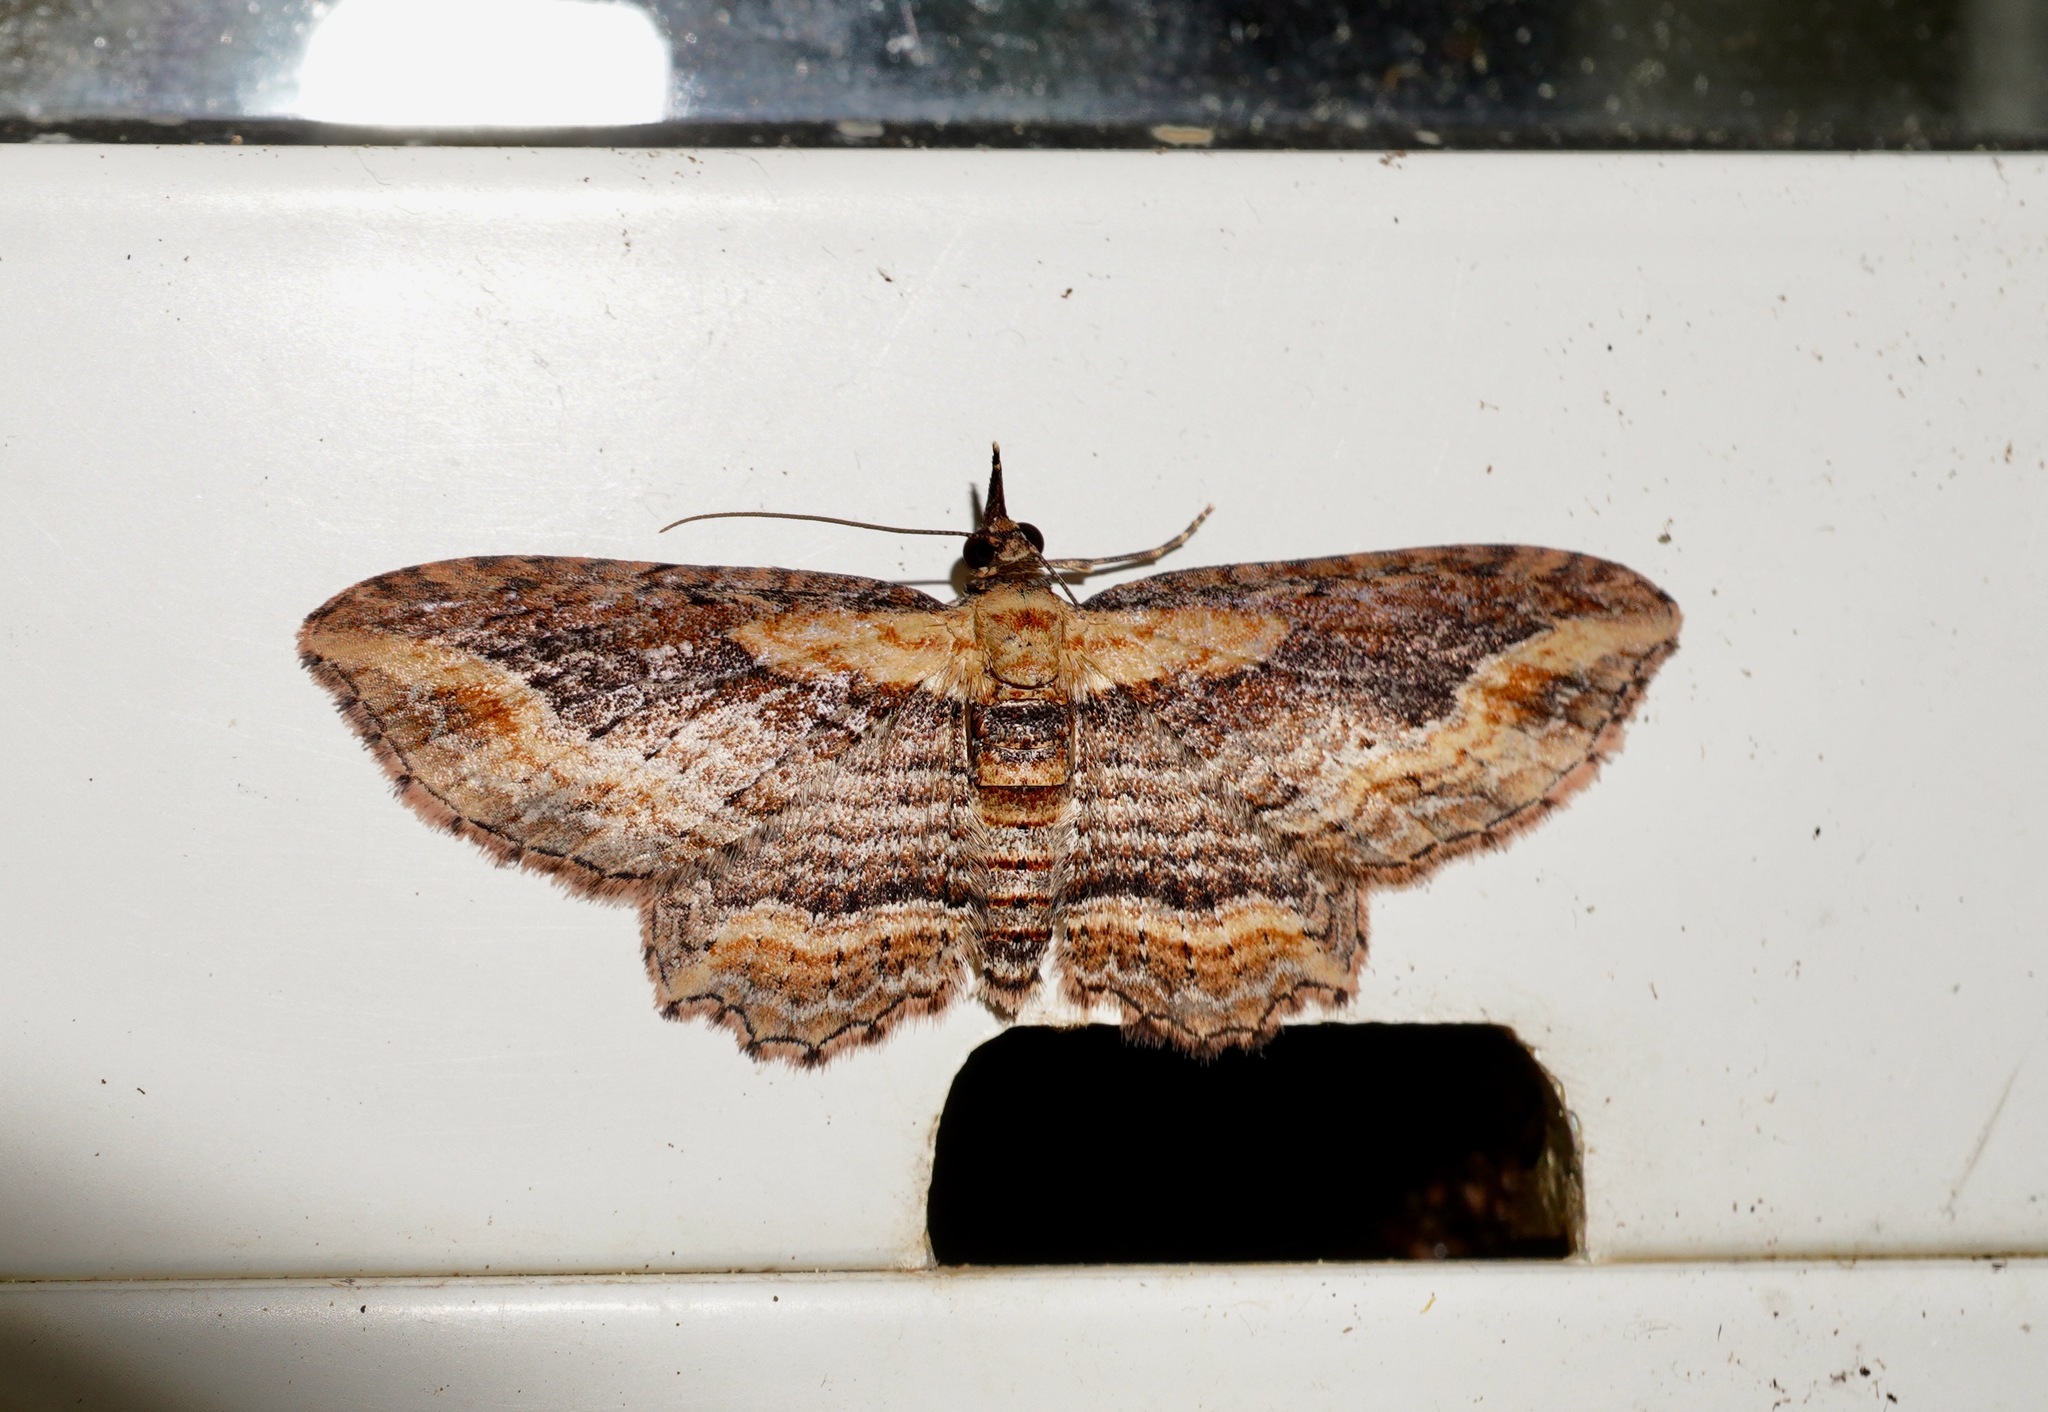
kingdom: Animalia
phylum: Arthropoda
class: Insecta
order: Lepidoptera
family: Geometridae
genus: Chloroclystis
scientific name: Chloroclystis filata
